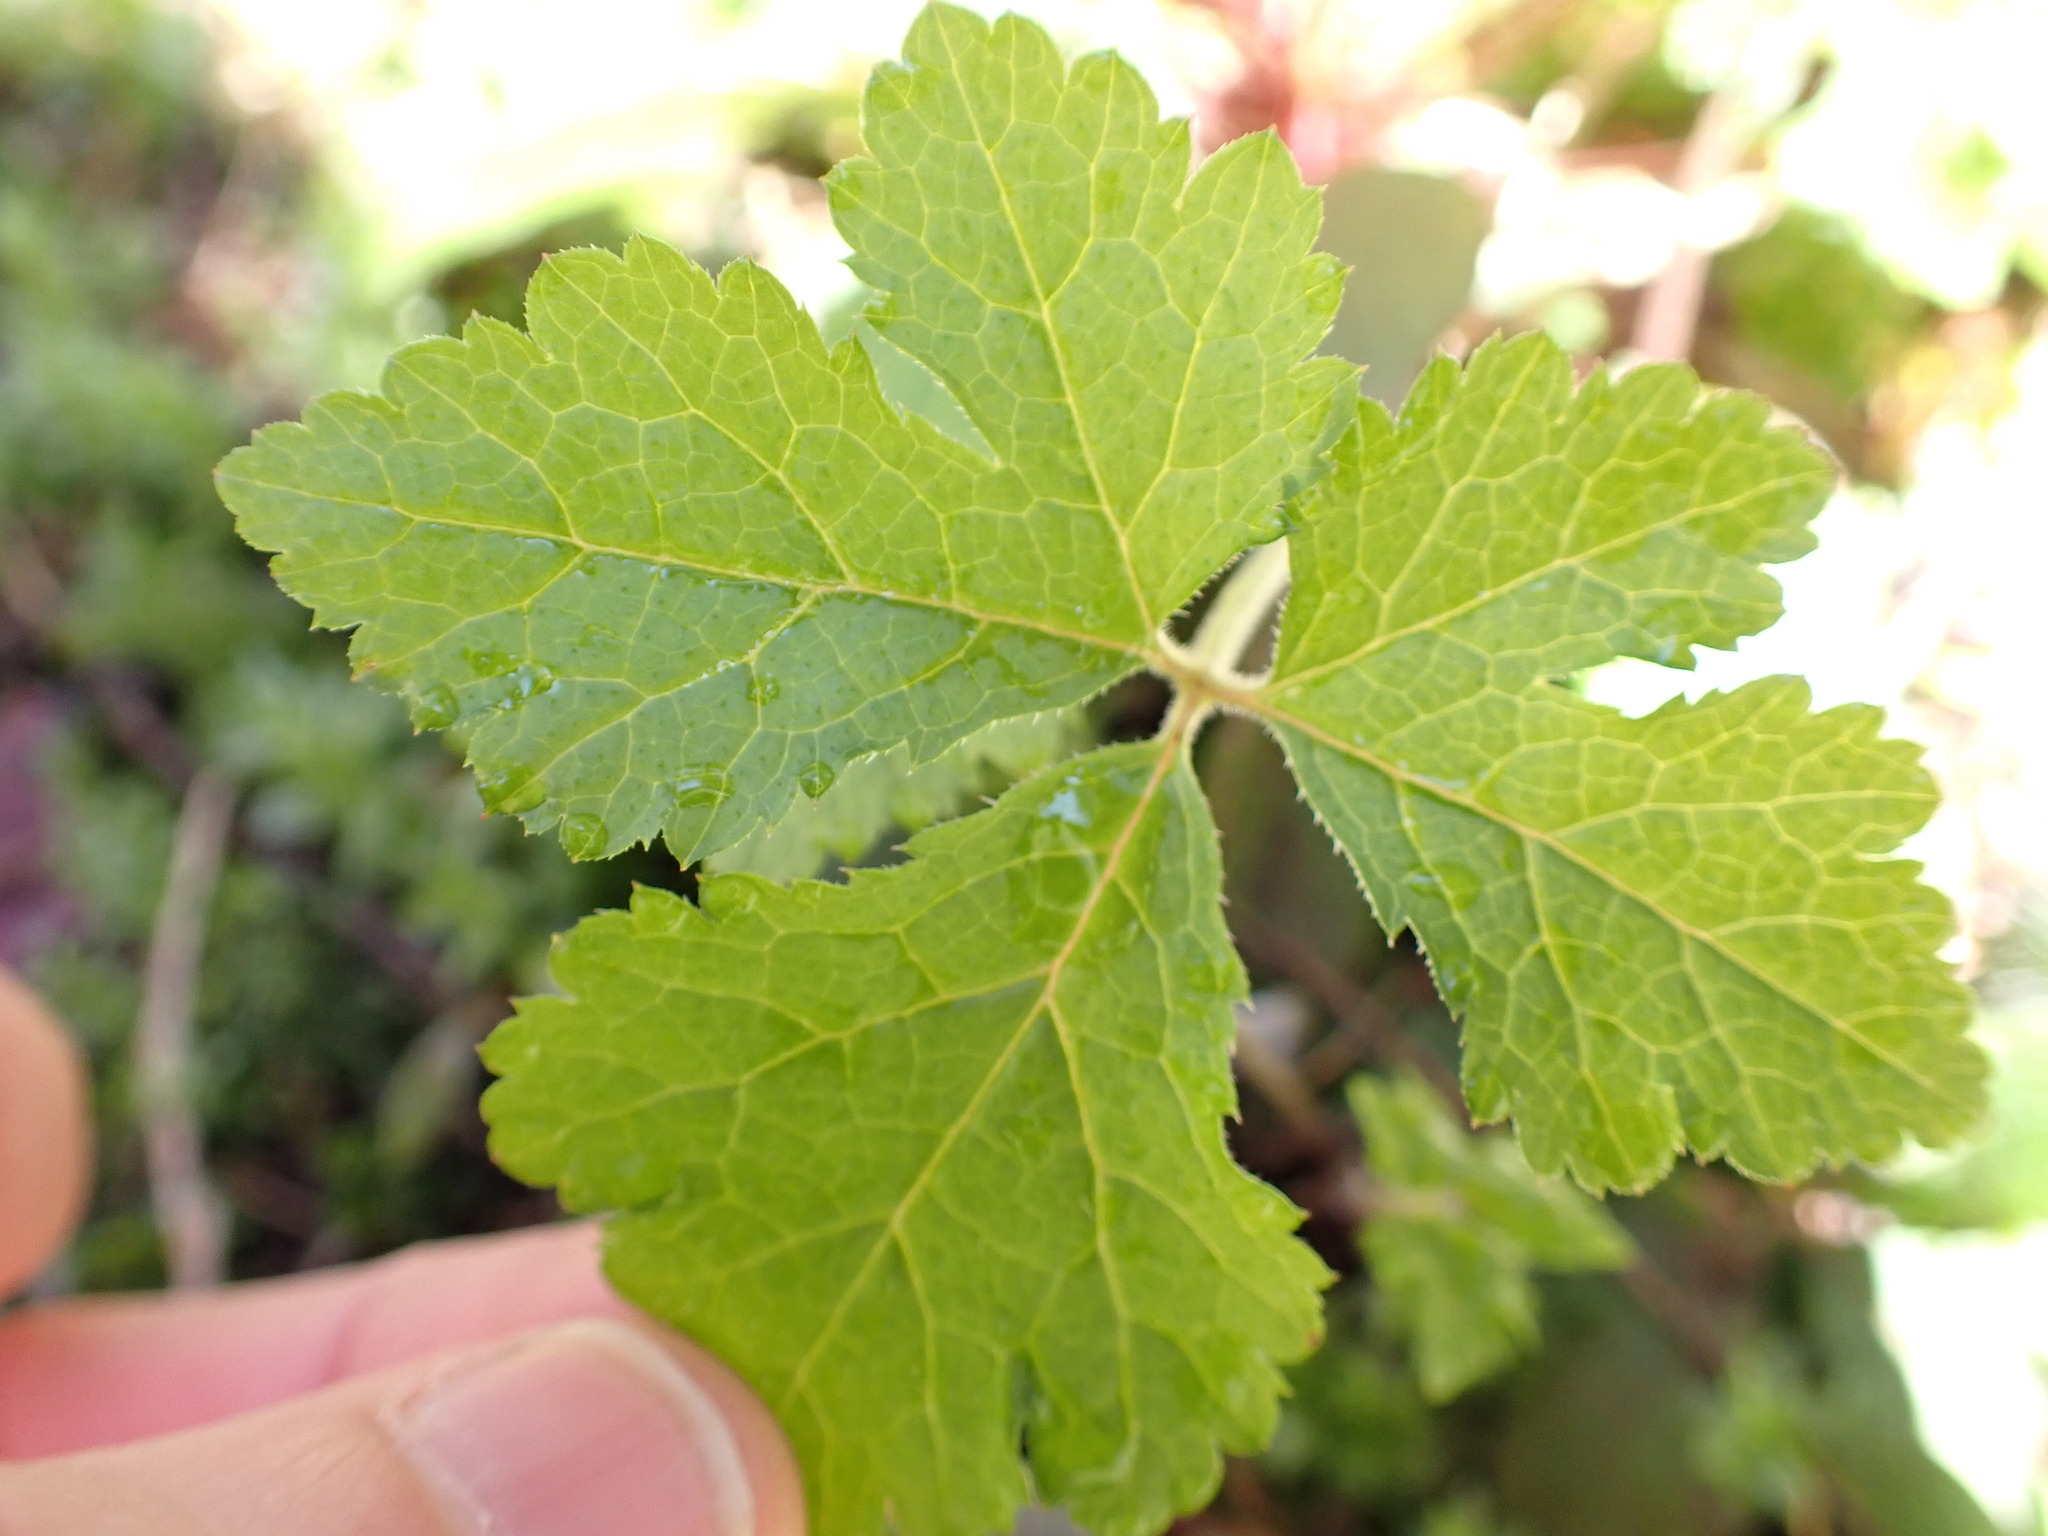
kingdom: Plantae
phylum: Tracheophyta
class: Magnoliopsida
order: Saxifragales
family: Saxifragaceae
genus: Tiarella
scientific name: Tiarella trifoliata
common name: Sugar-scoop
